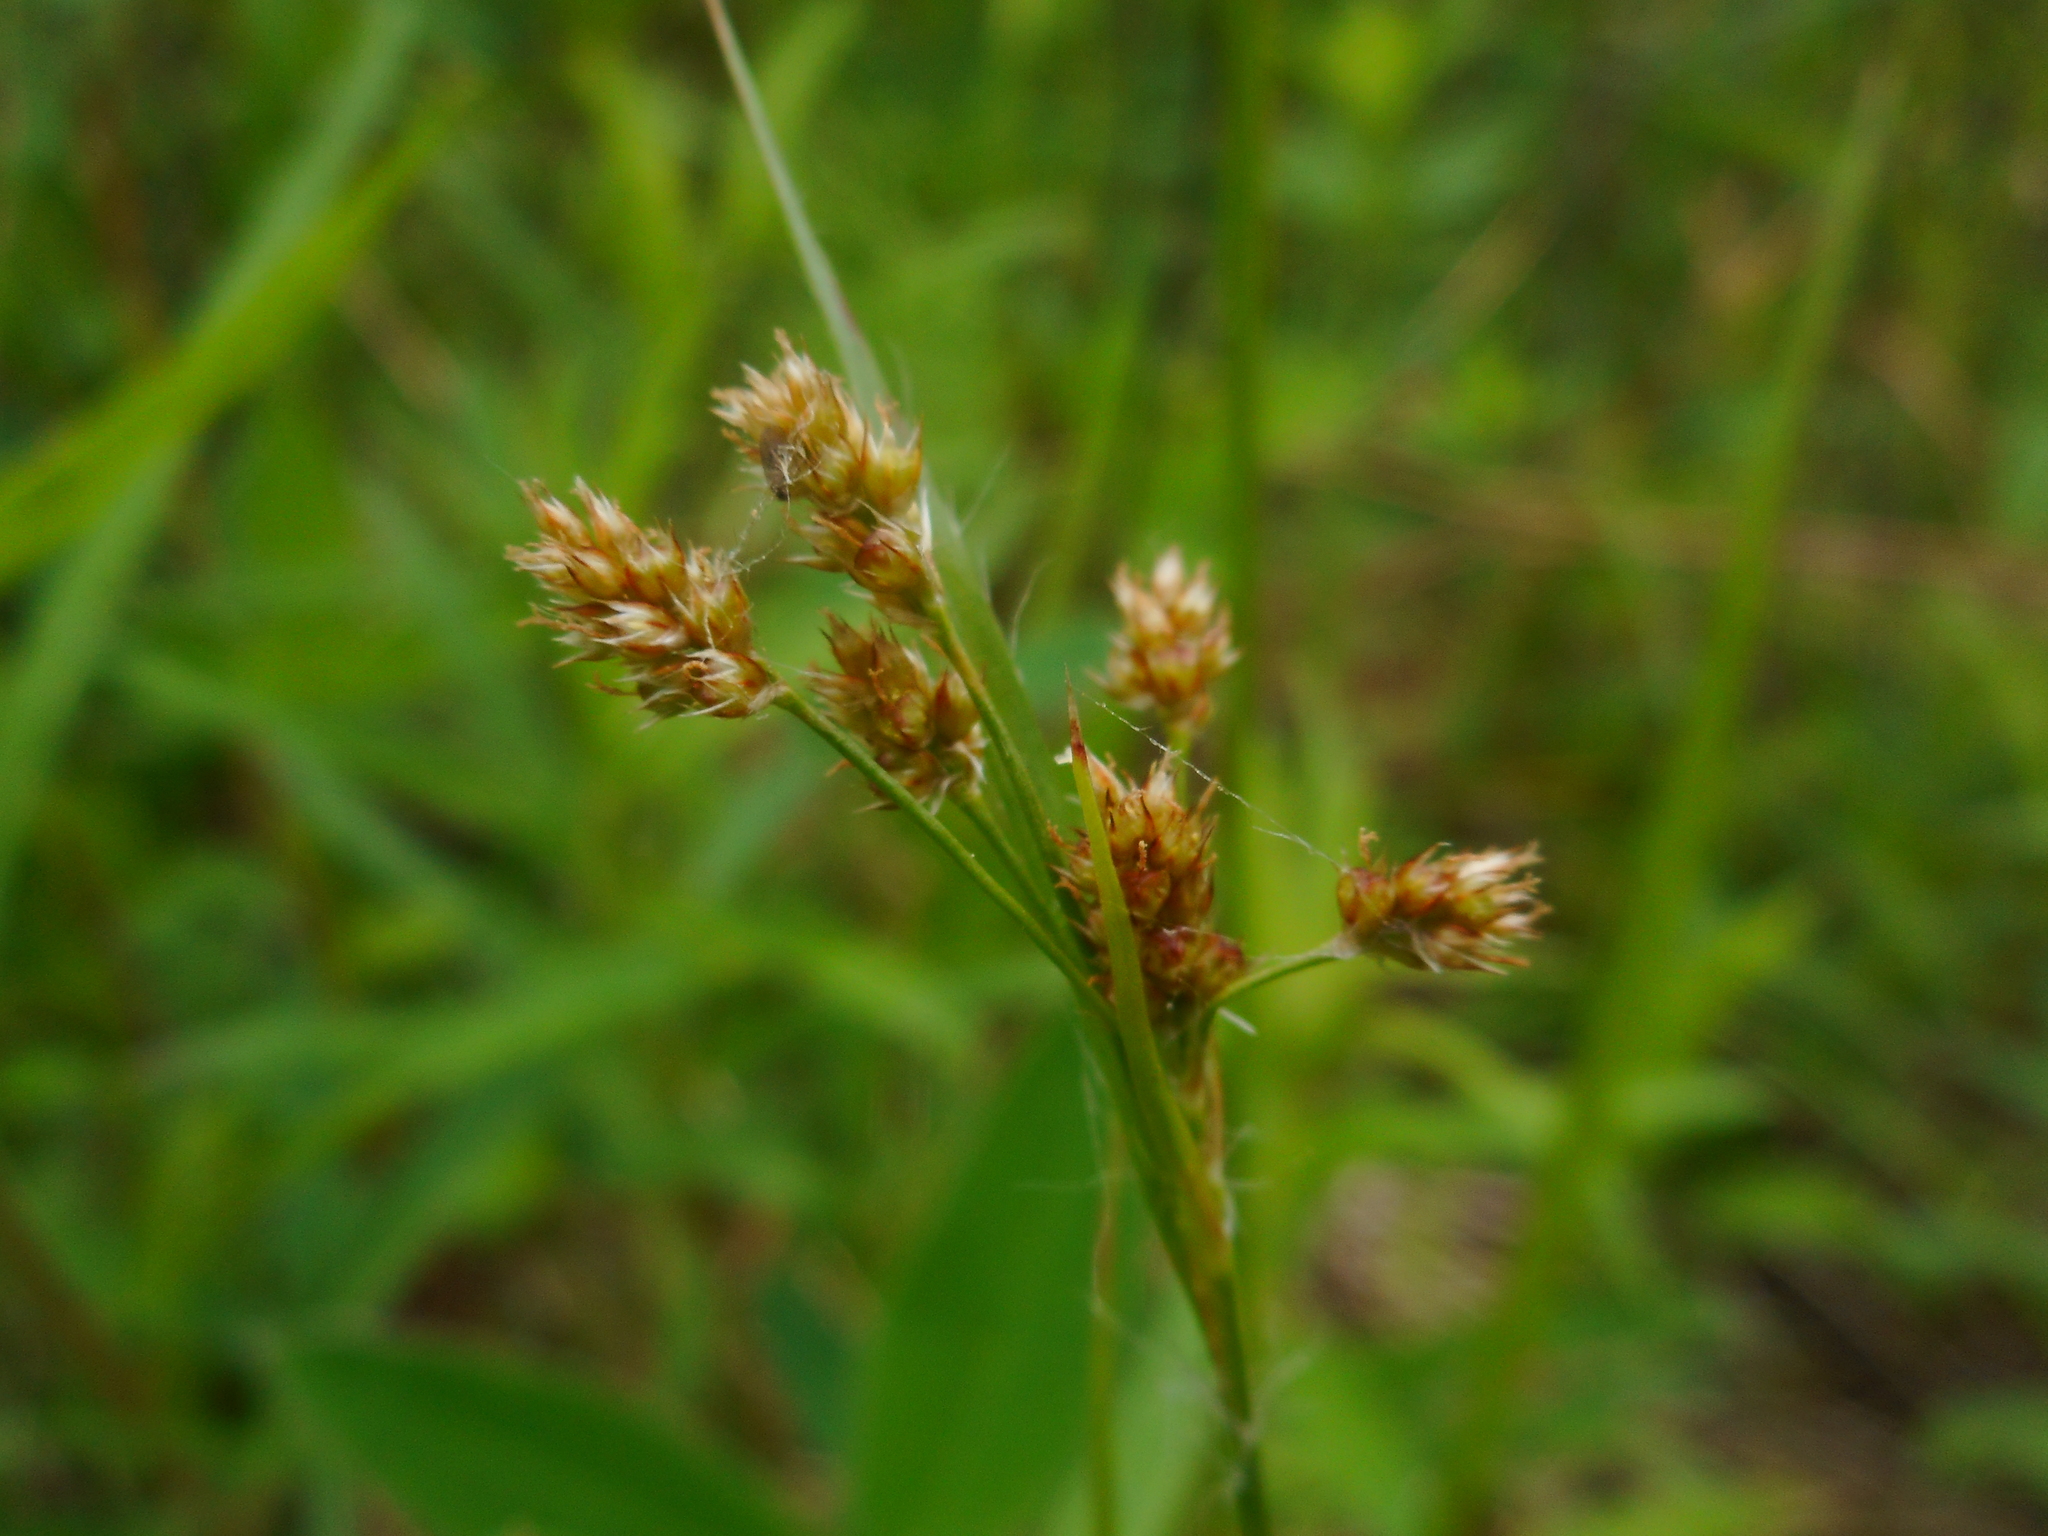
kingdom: Plantae
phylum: Tracheophyta
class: Liliopsida
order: Poales
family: Juncaceae
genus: Luzula
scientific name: Luzula pallescens
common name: Fen wood-rush
